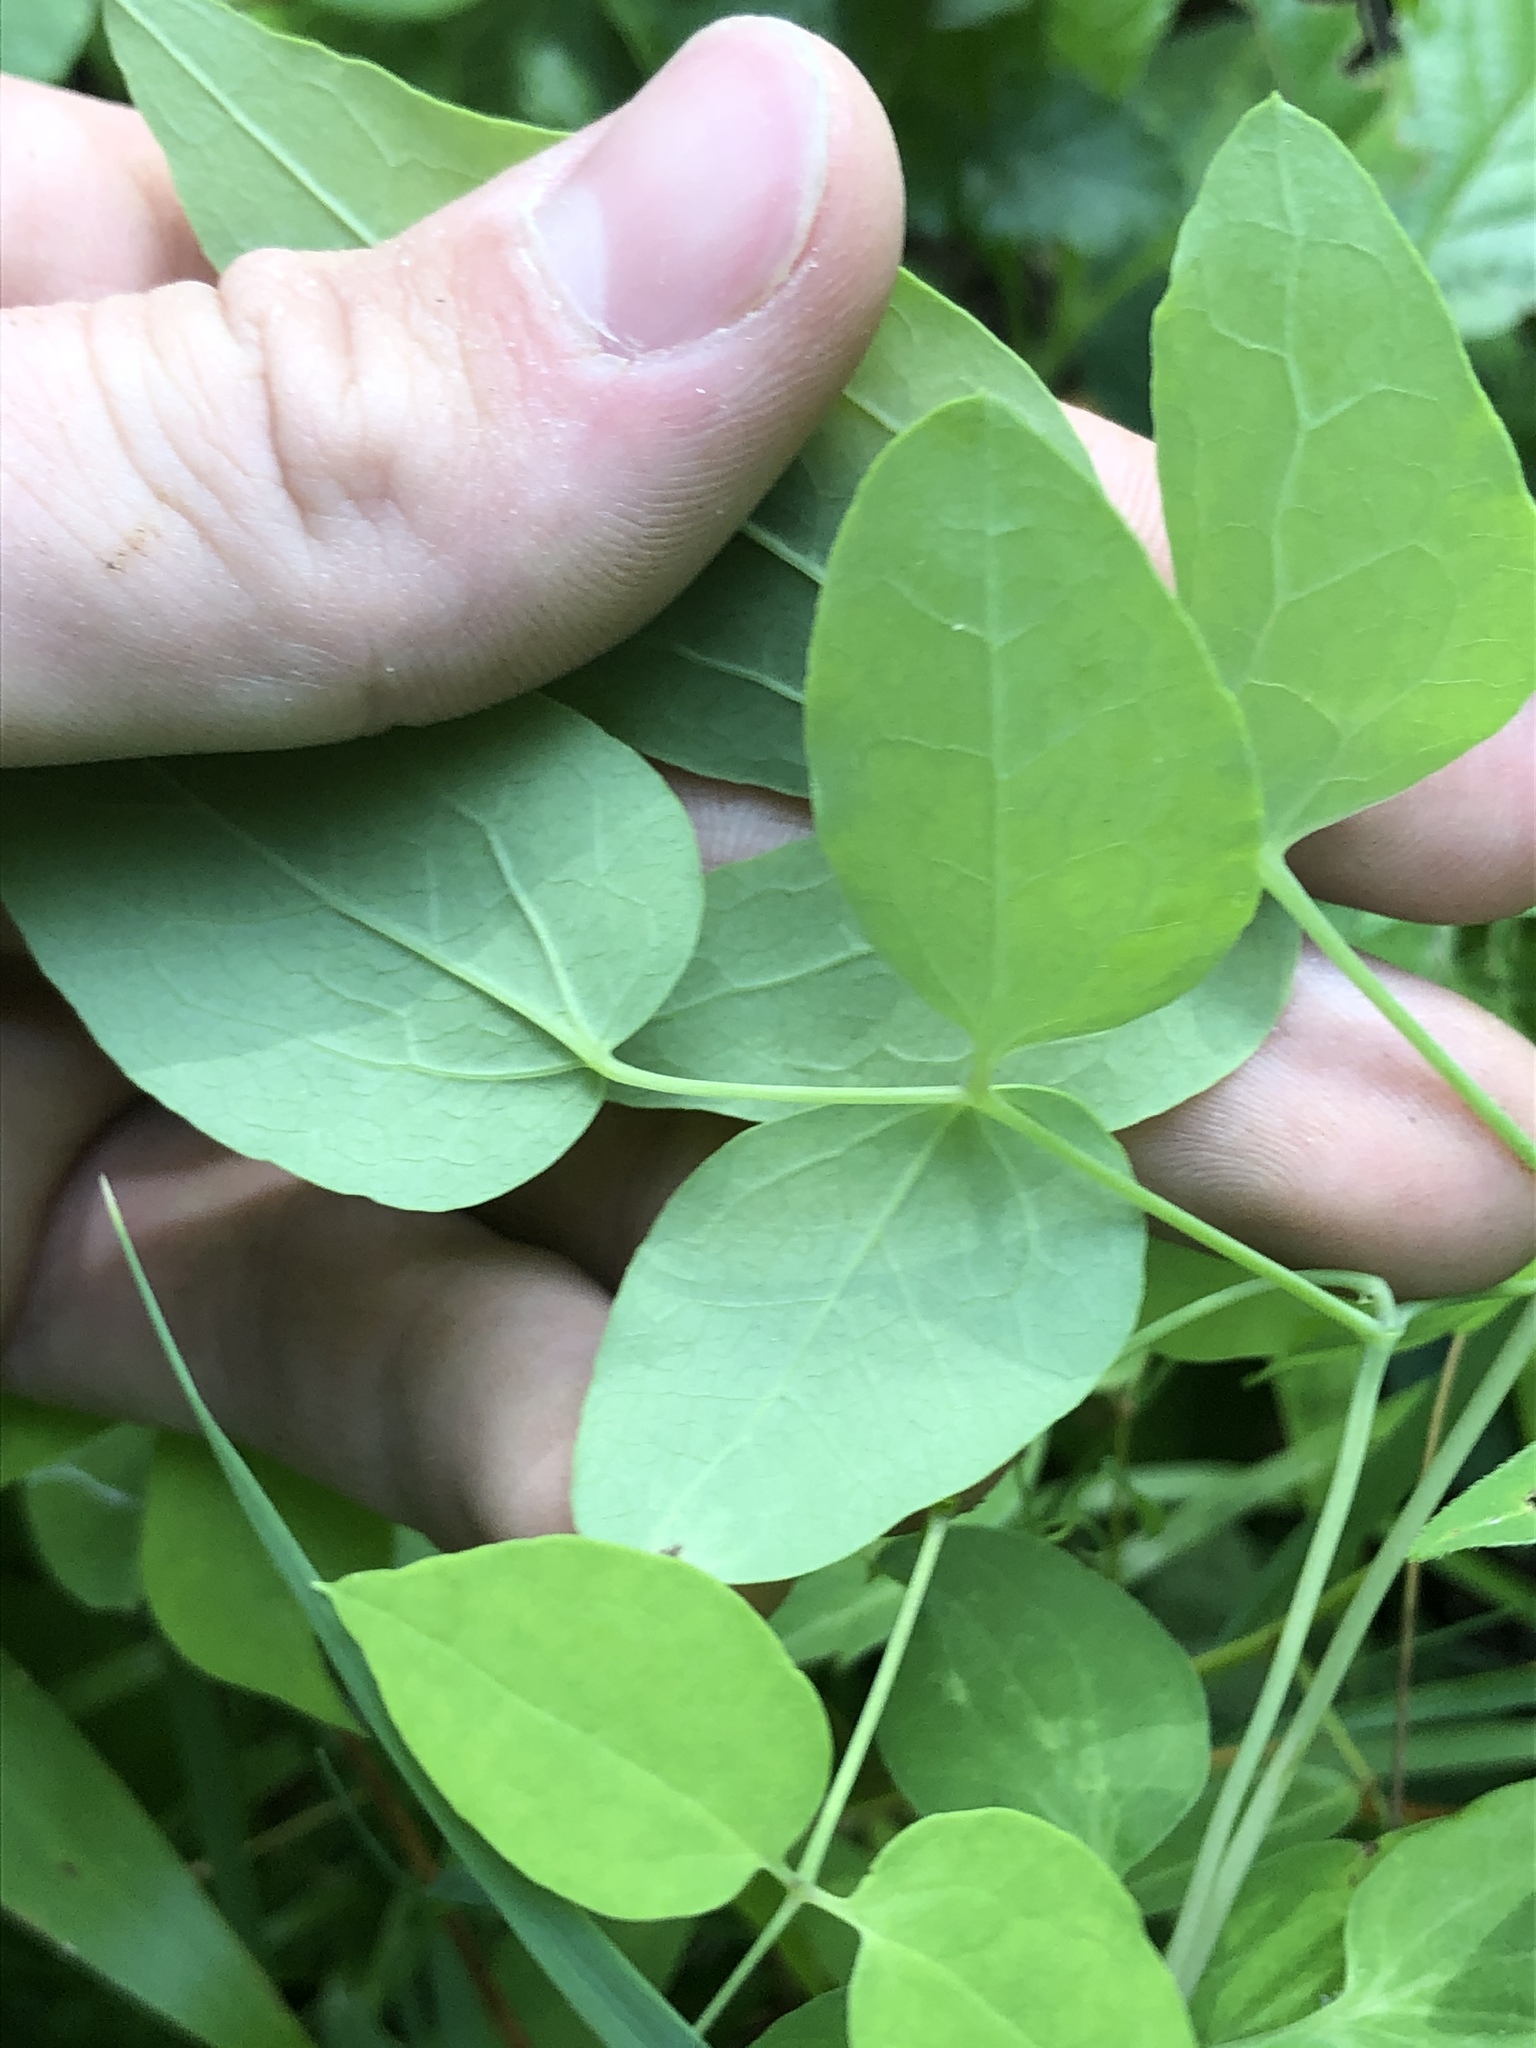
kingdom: Plantae
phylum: Tracheophyta
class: Magnoliopsida
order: Ranunculales
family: Ranunculaceae
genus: Clematis
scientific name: Clematis glaucophylla
